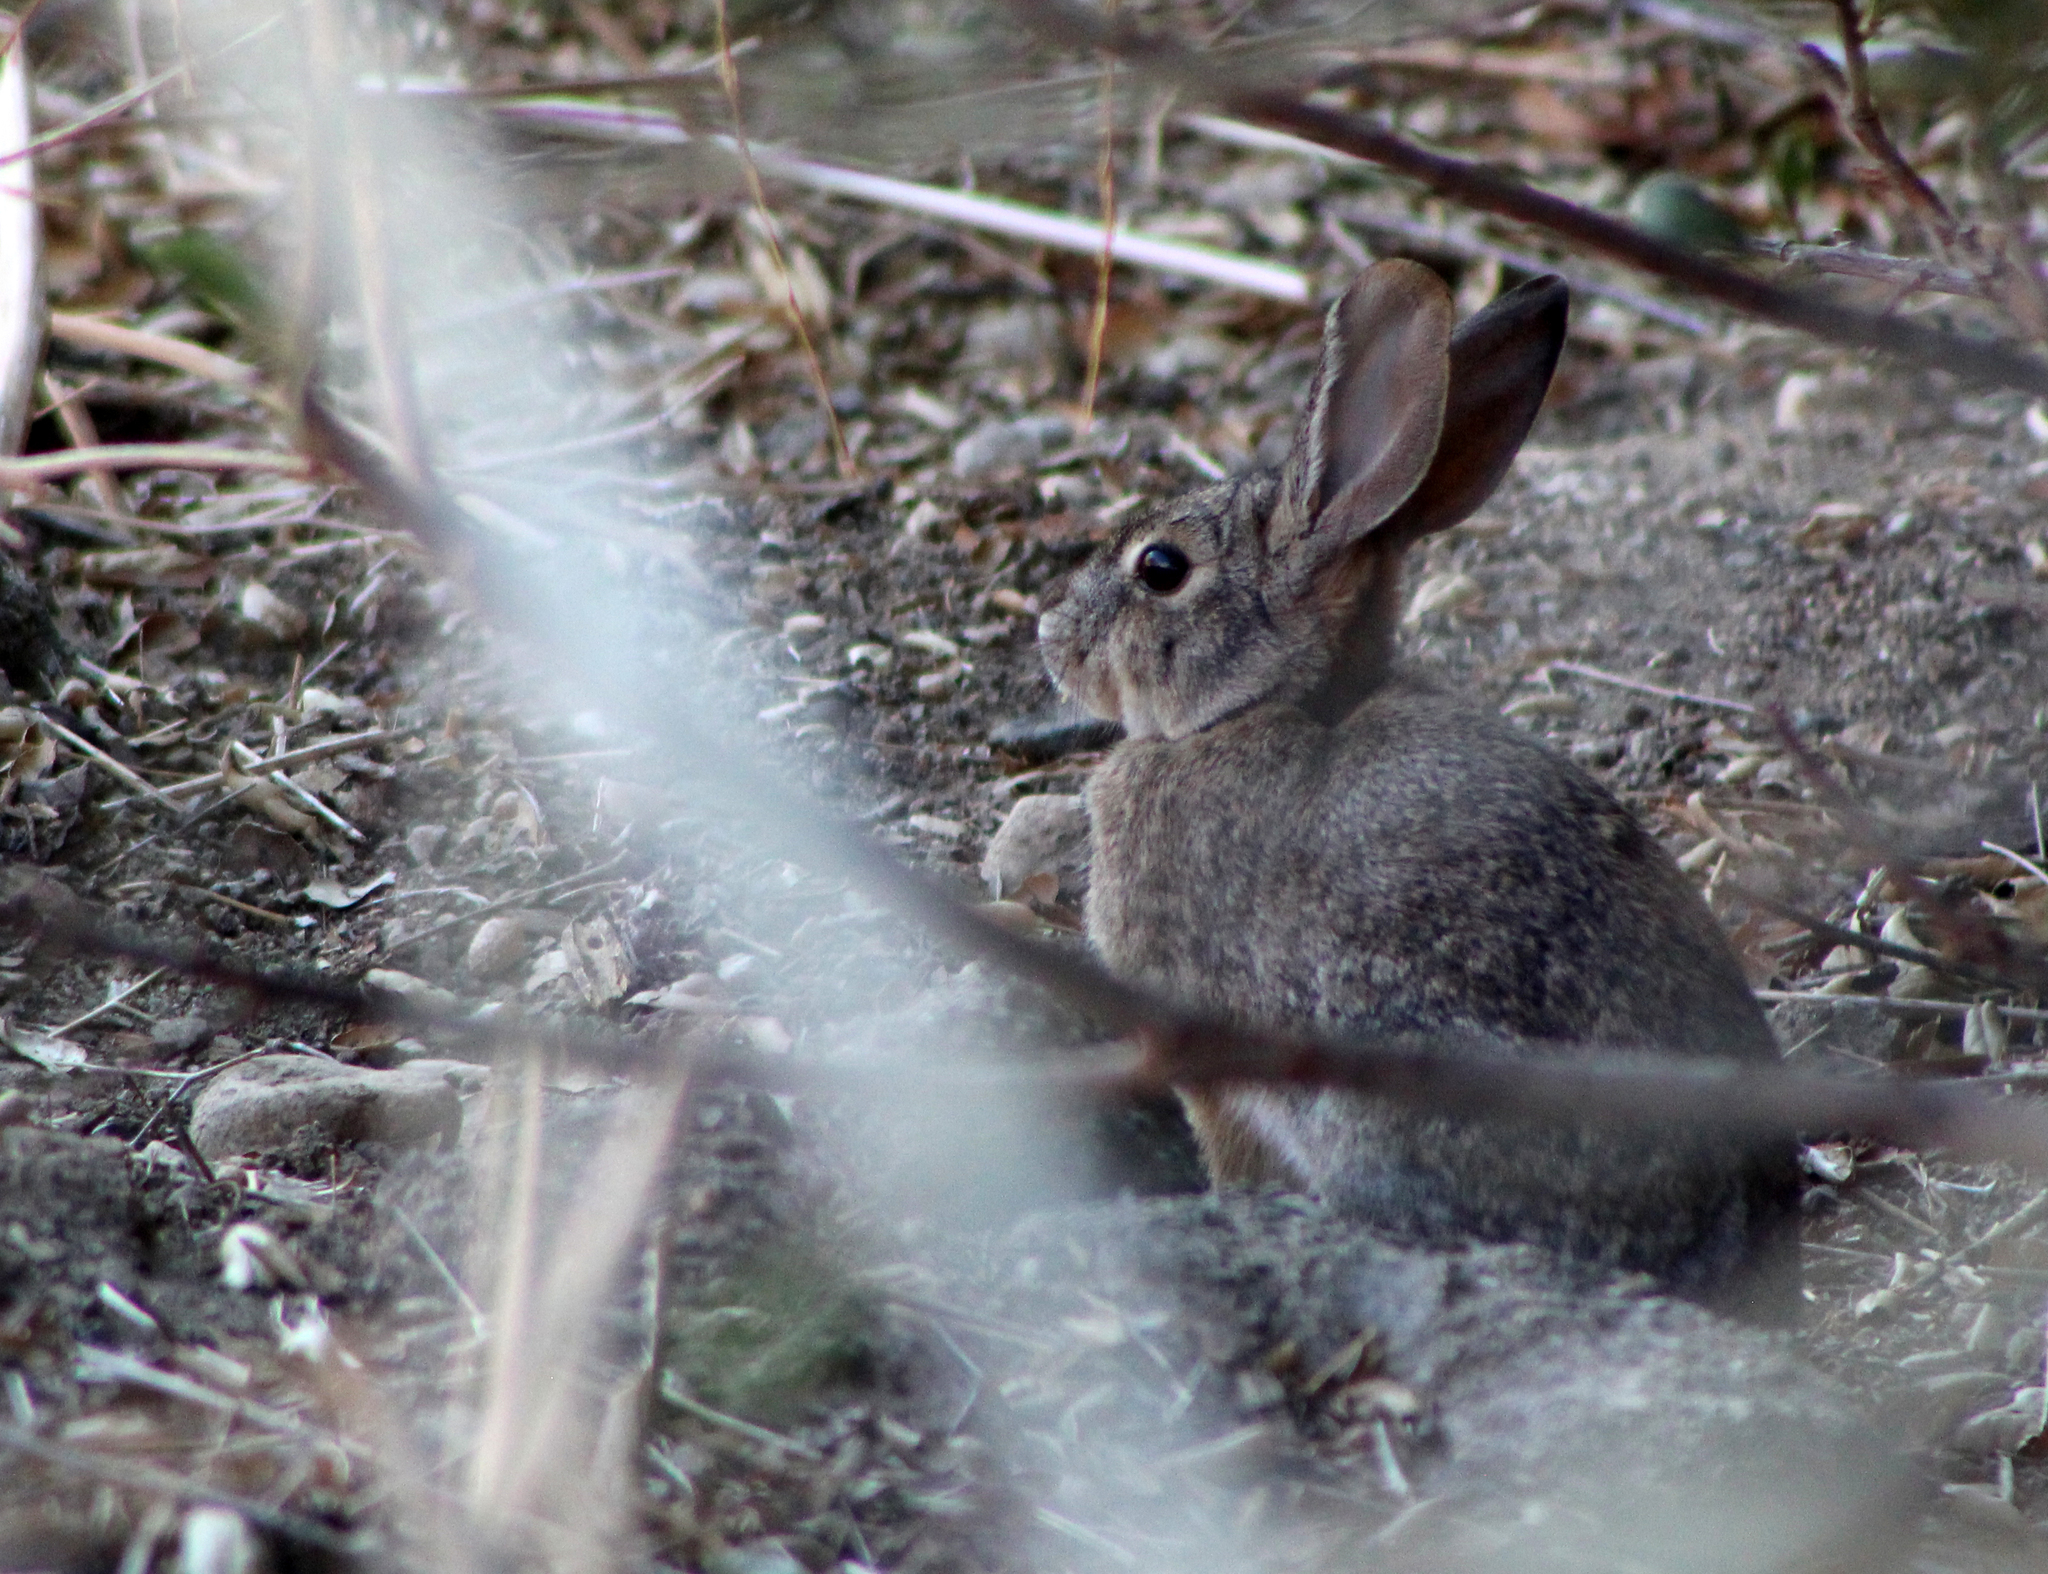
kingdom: Animalia
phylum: Chordata
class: Mammalia
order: Lagomorpha
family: Leporidae
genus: Sylvilagus
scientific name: Sylvilagus audubonii
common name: Desert cottontail
